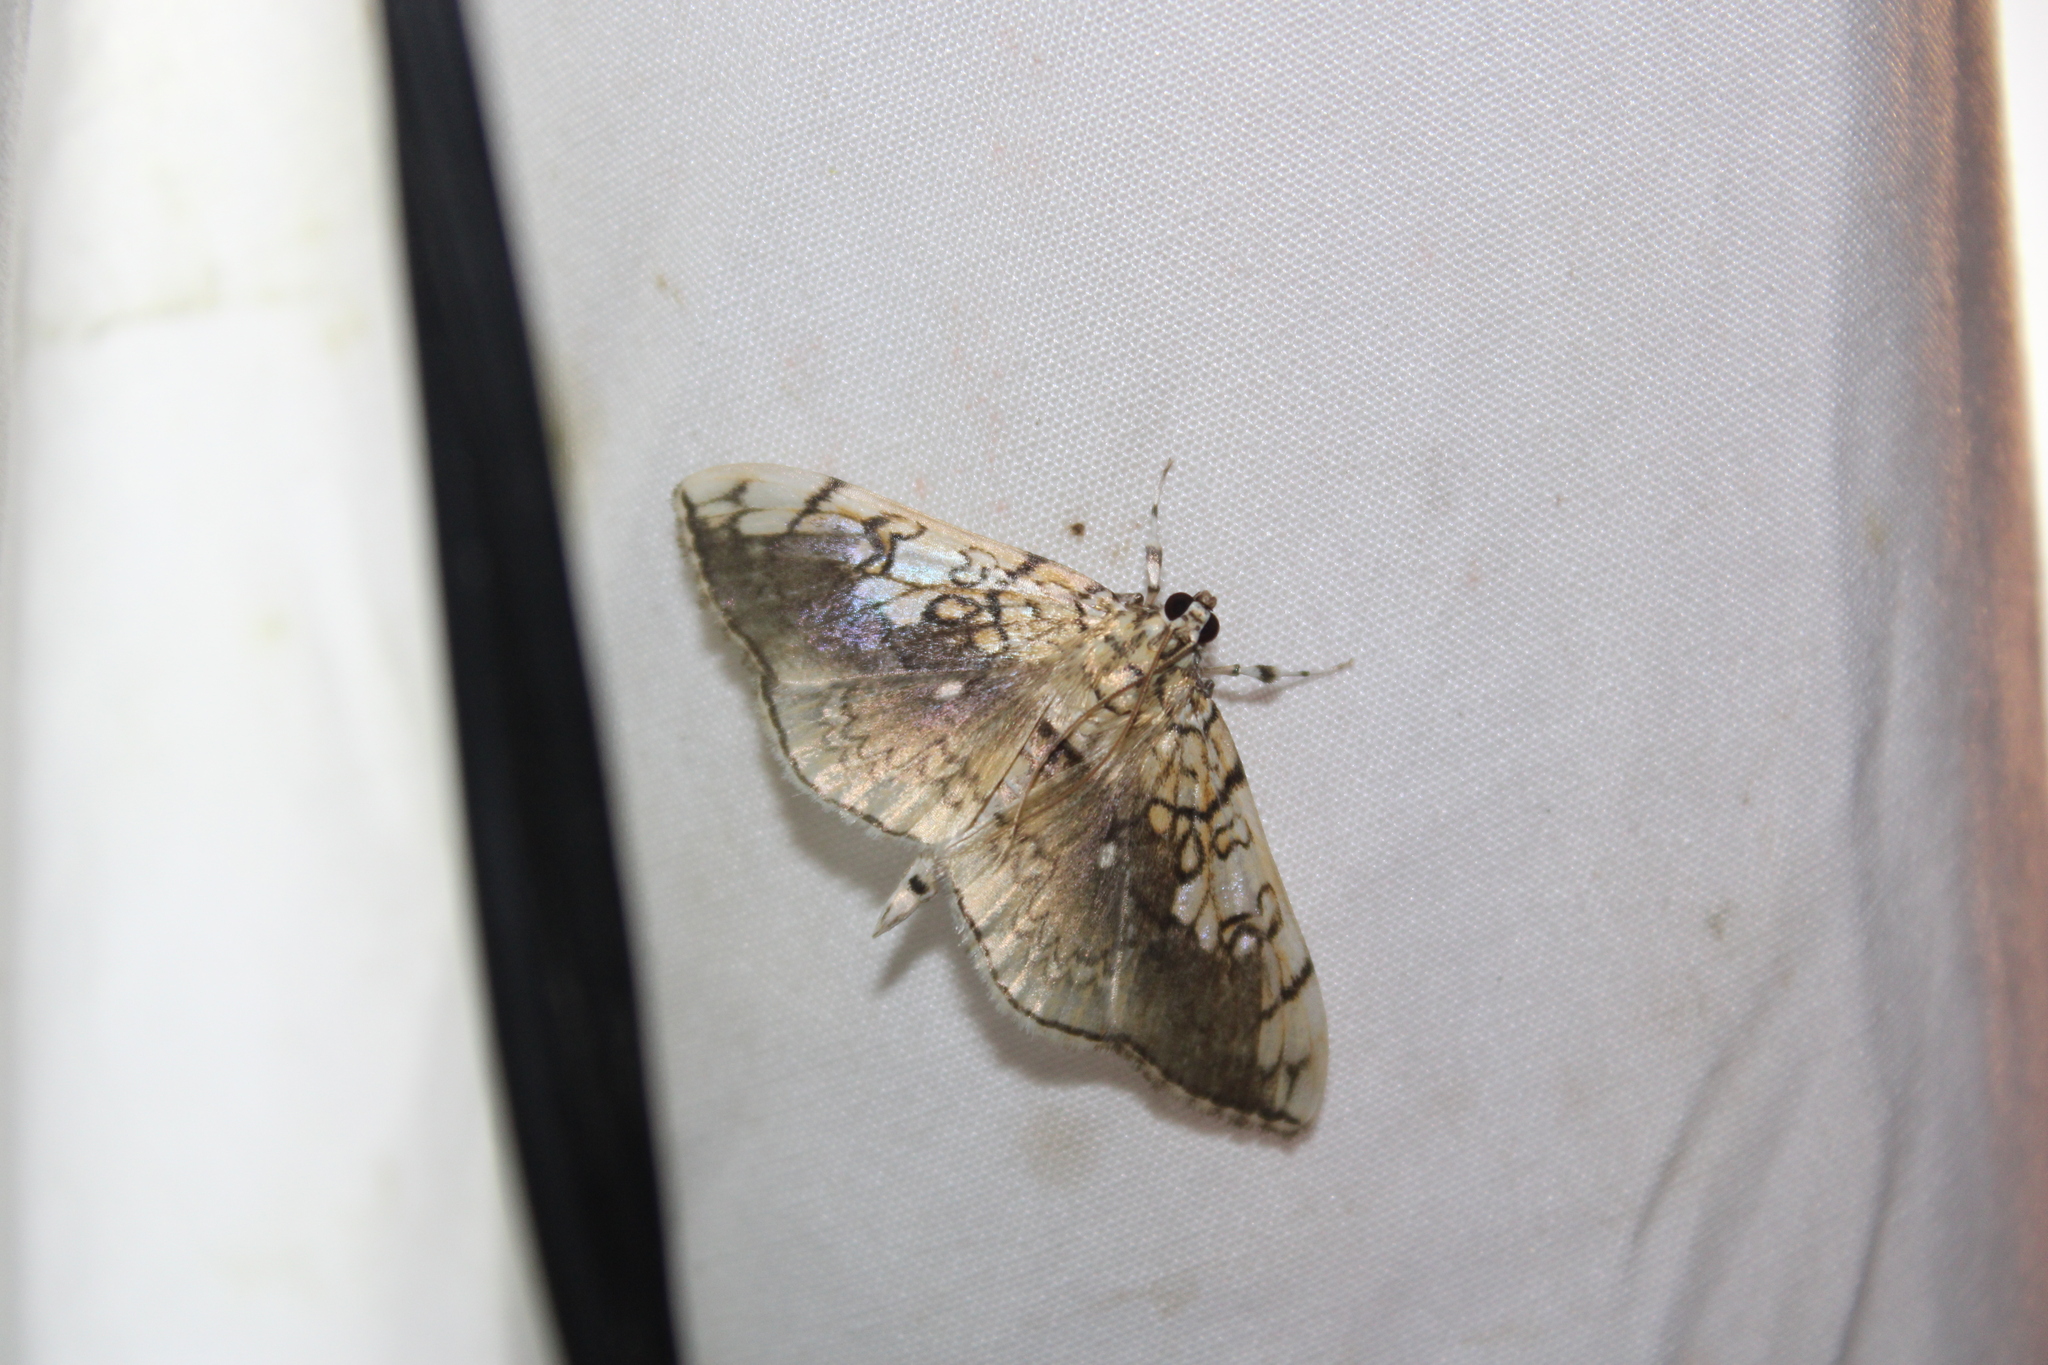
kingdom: Animalia
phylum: Arthropoda
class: Insecta
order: Lepidoptera
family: Crambidae
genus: Pantographa
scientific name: Pantographa limata
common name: Basswood leafroller moth
